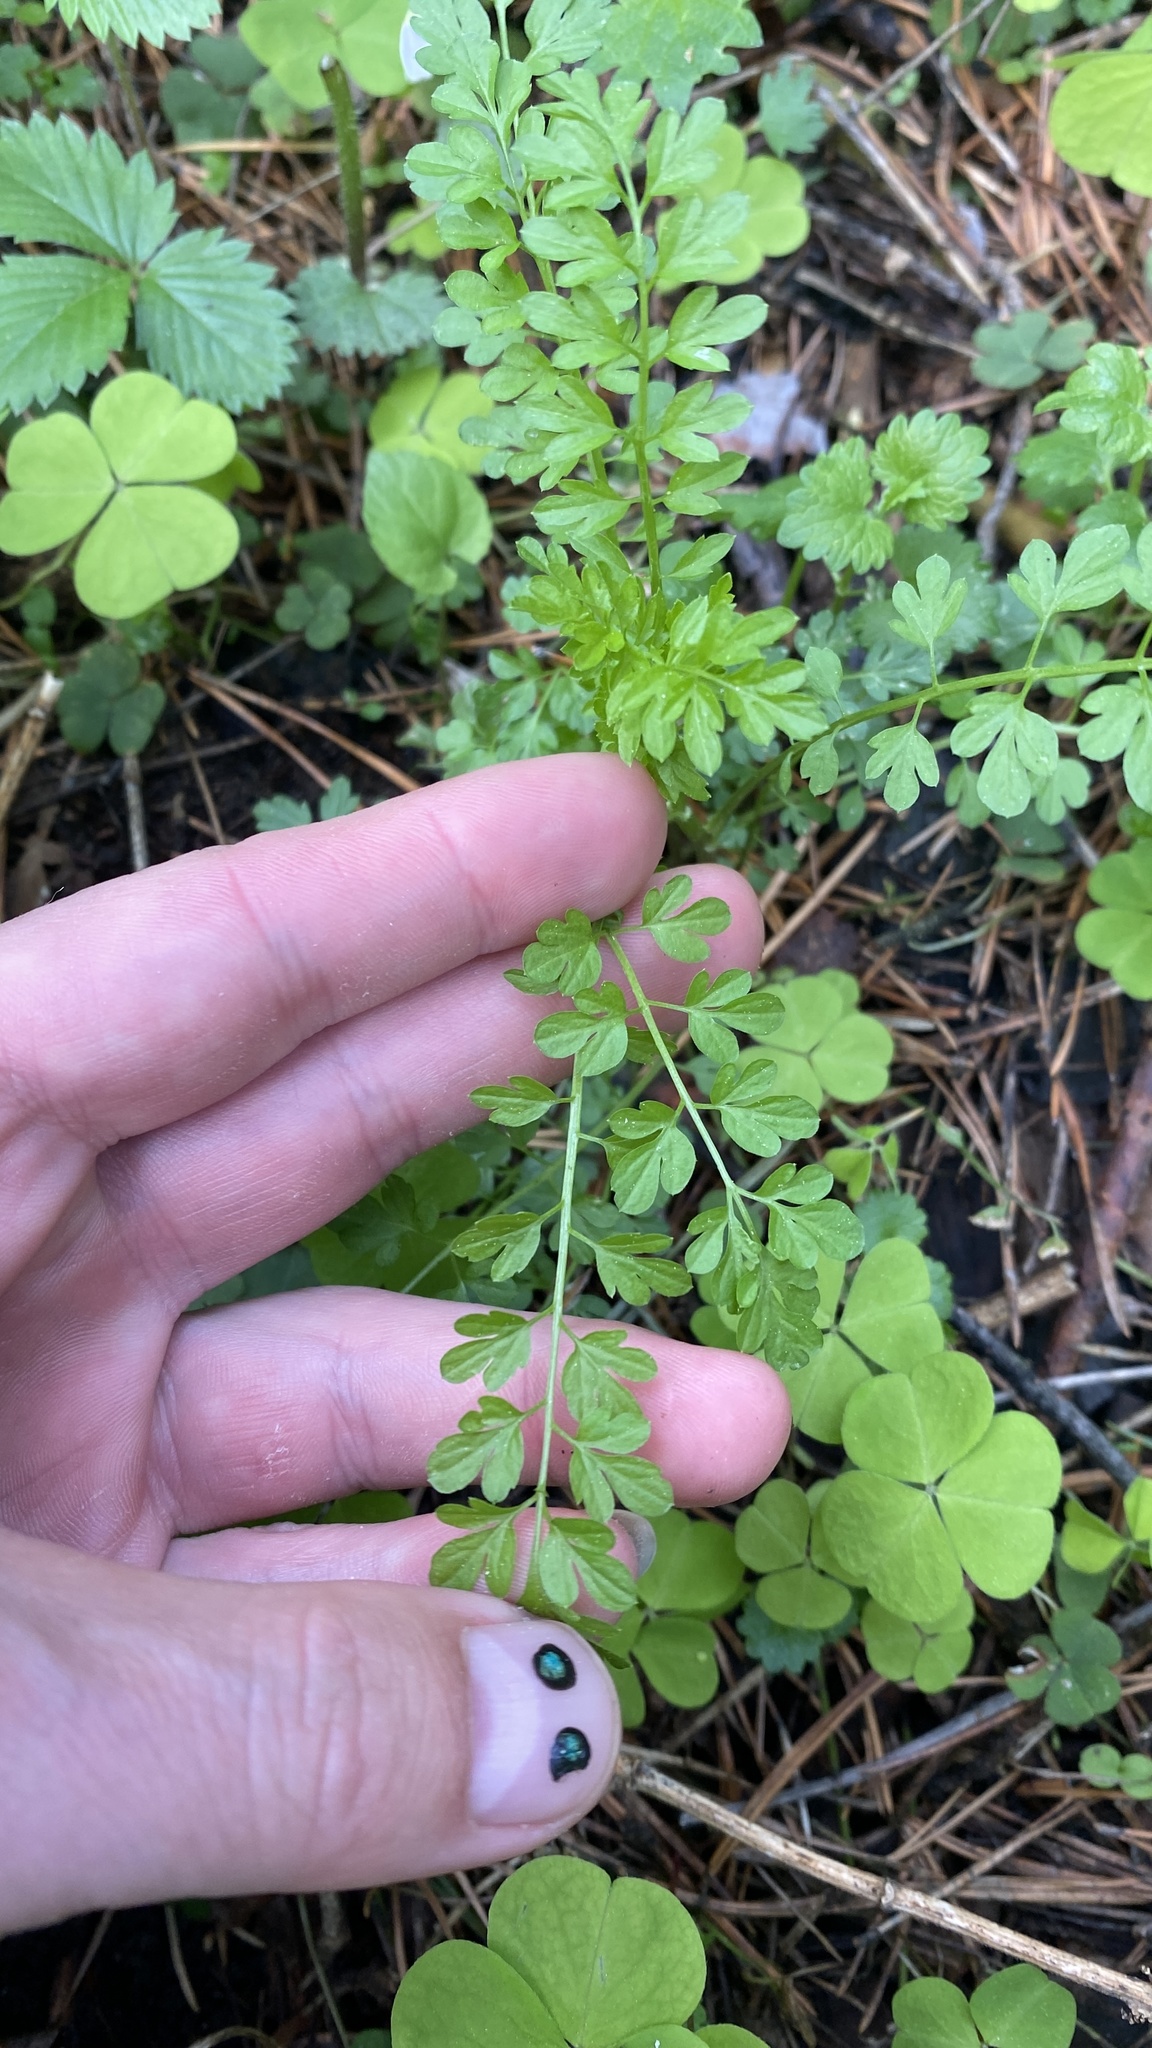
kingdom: Plantae
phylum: Tracheophyta
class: Magnoliopsida
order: Brassicales
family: Brassicaceae
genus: Cardamine
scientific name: Cardamine impatiens
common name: Narrow-leaved bitter-cress
